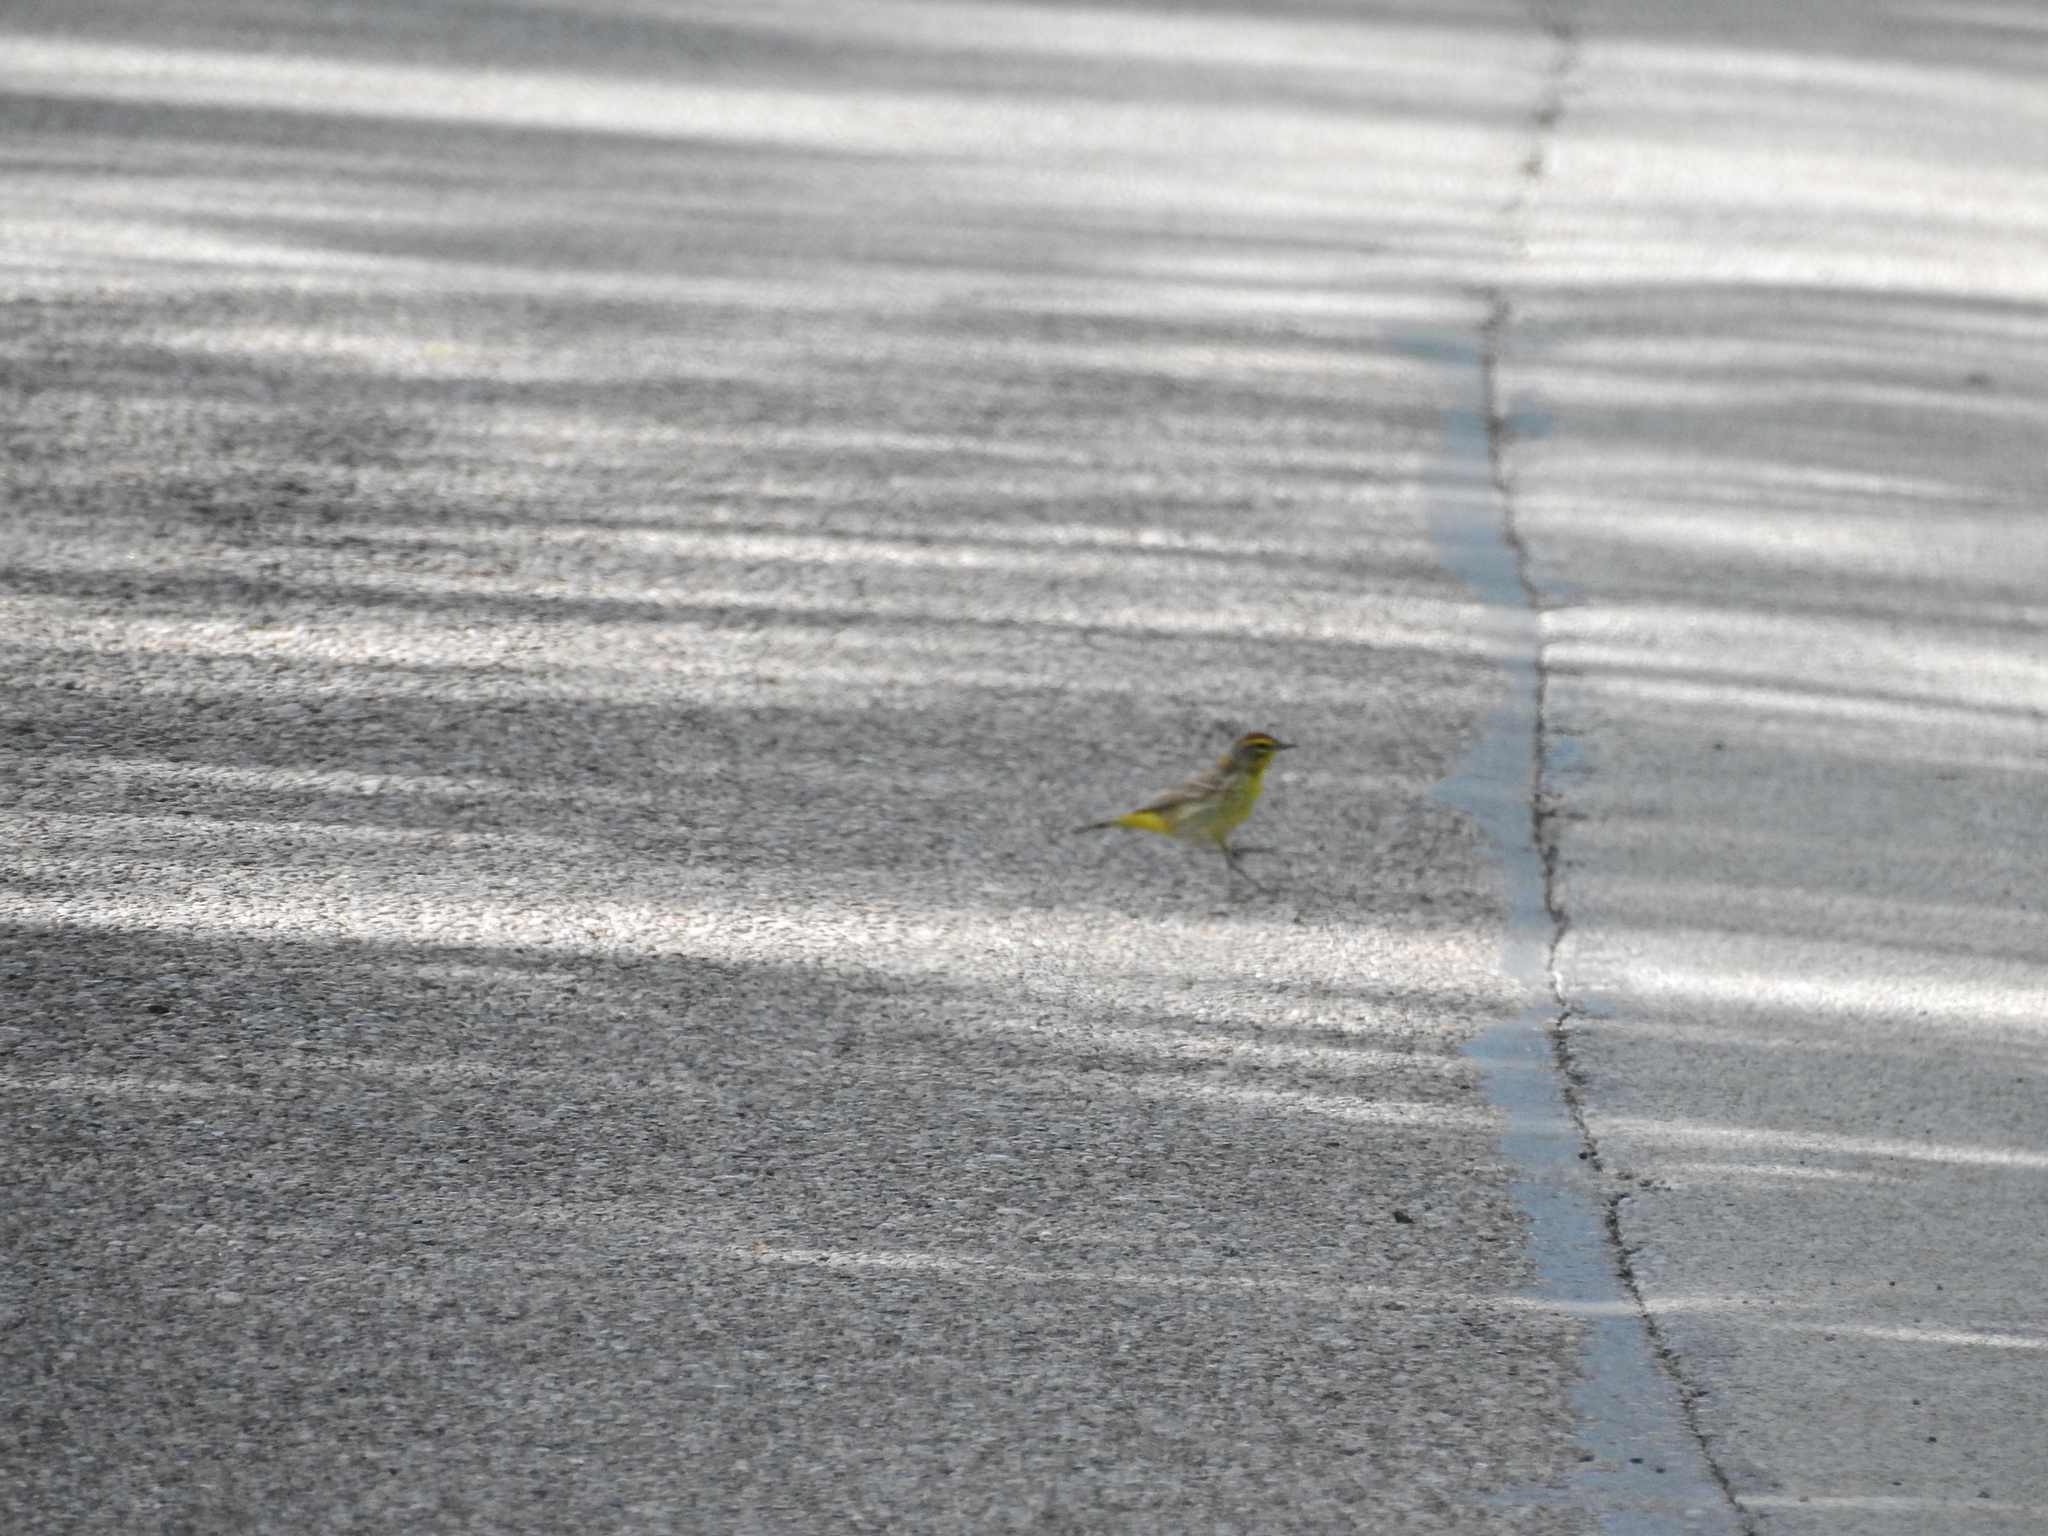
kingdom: Animalia
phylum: Chordata
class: Aves
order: Passeriformes
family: Parulidae
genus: Setophaga
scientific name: Setophaga palmarum
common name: Palm warbler
